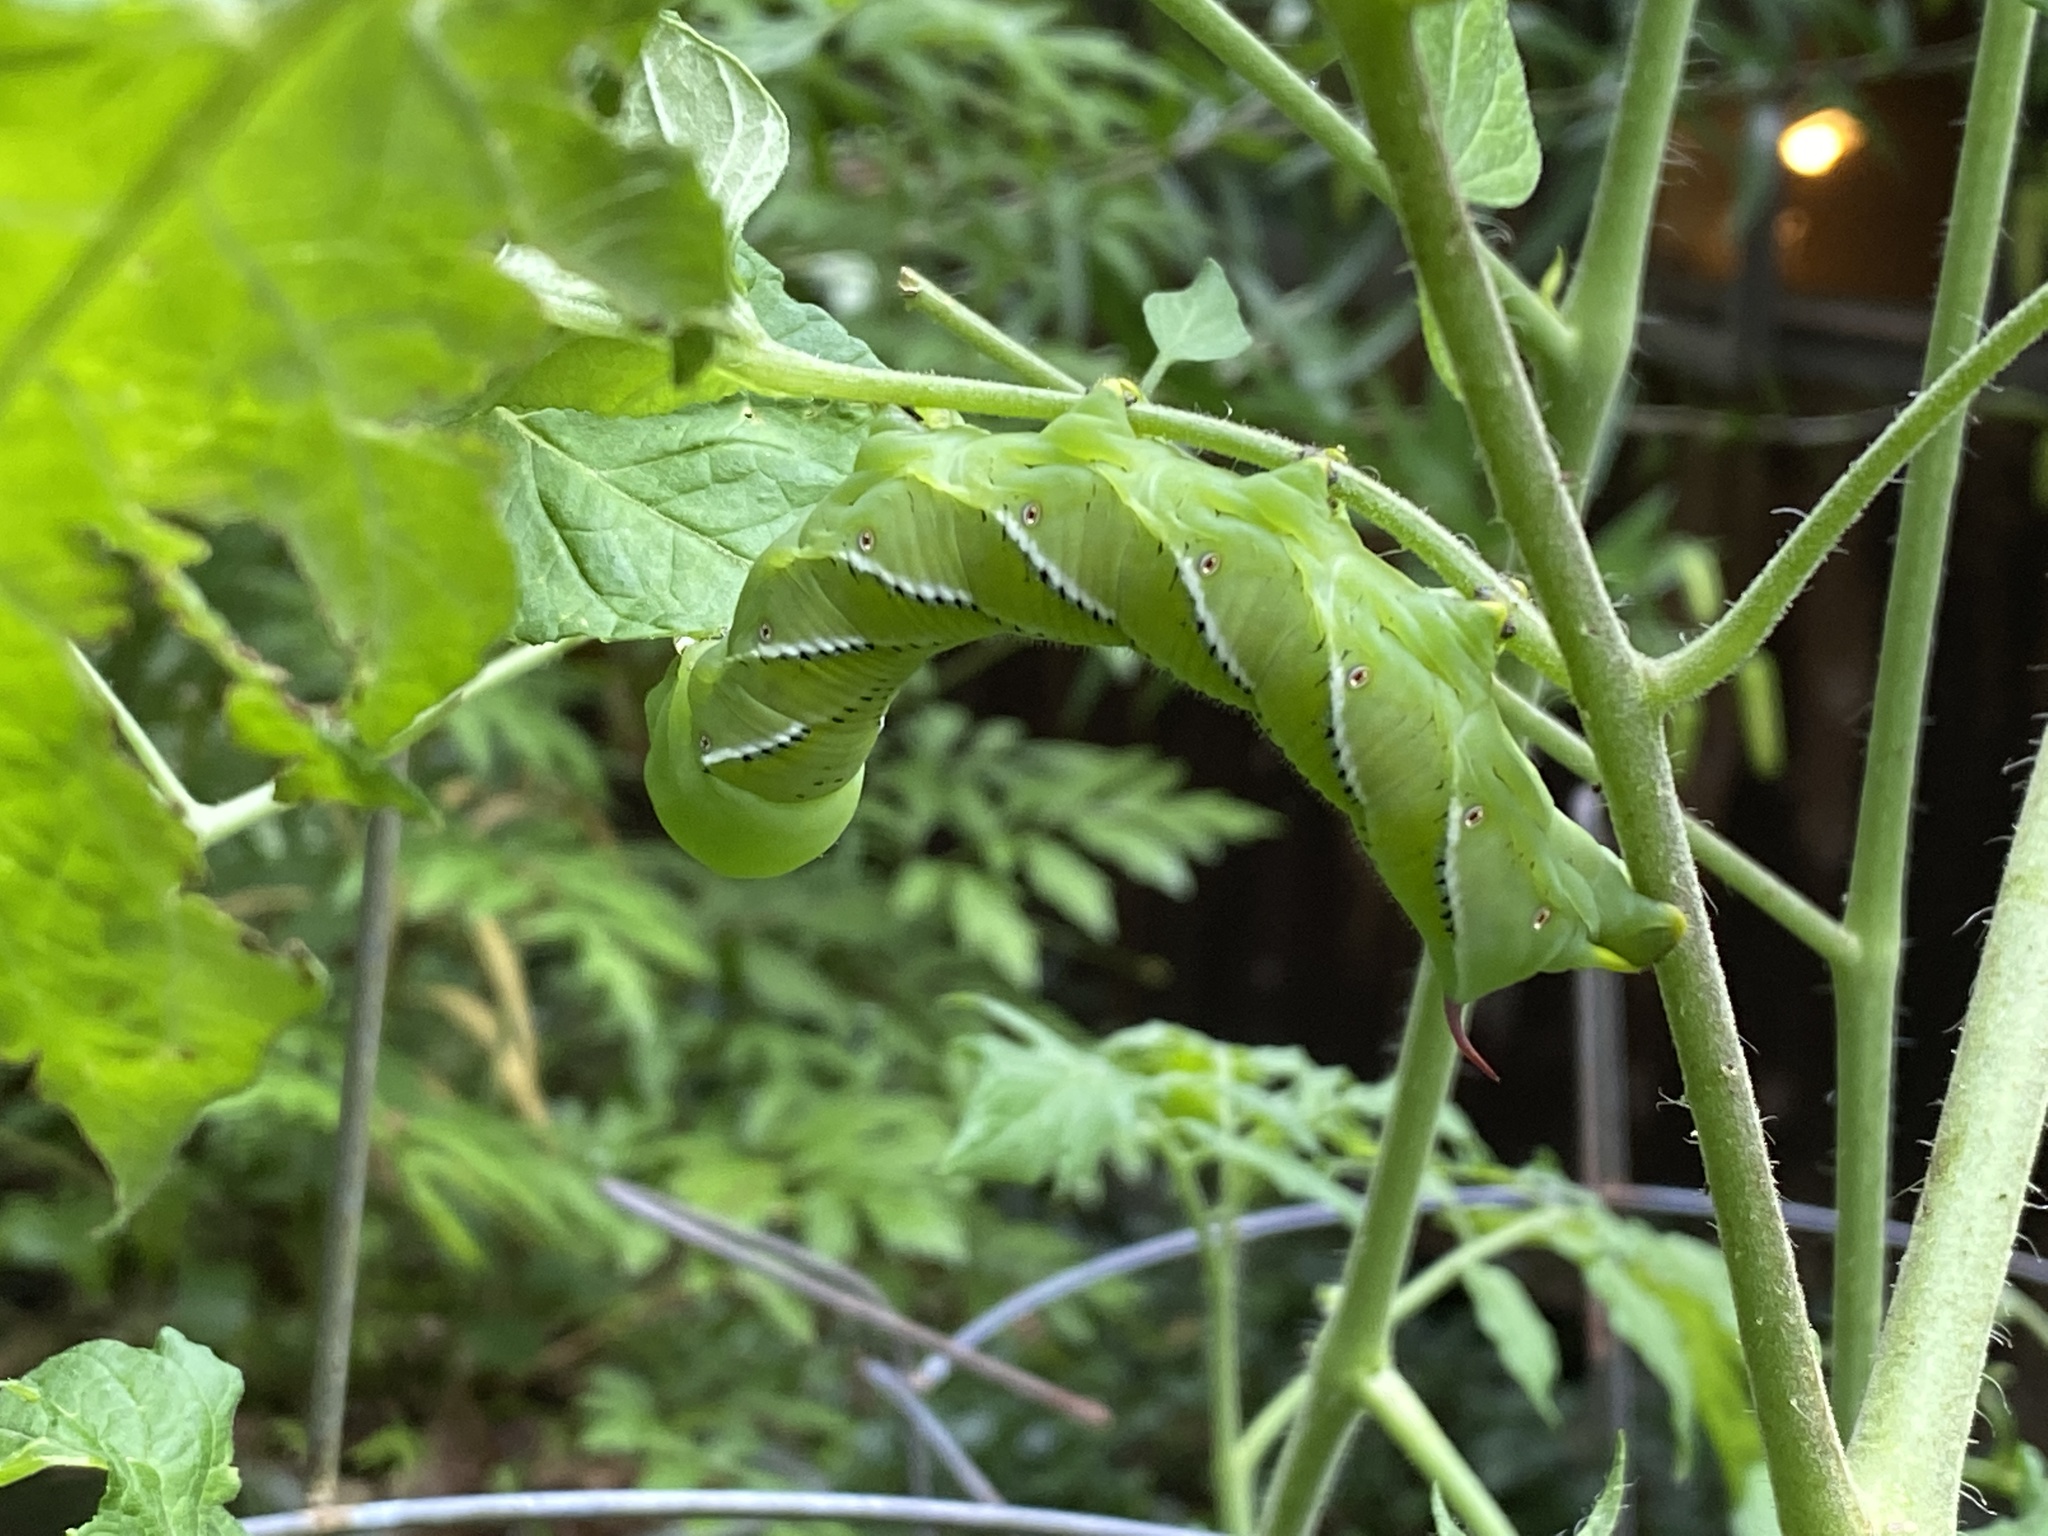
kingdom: Animalia
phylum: Arthropoda
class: Insecta
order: Lepidoptera
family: Sphingidae
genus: Manduca
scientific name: Manduca sexta
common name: Carolina sphinx
